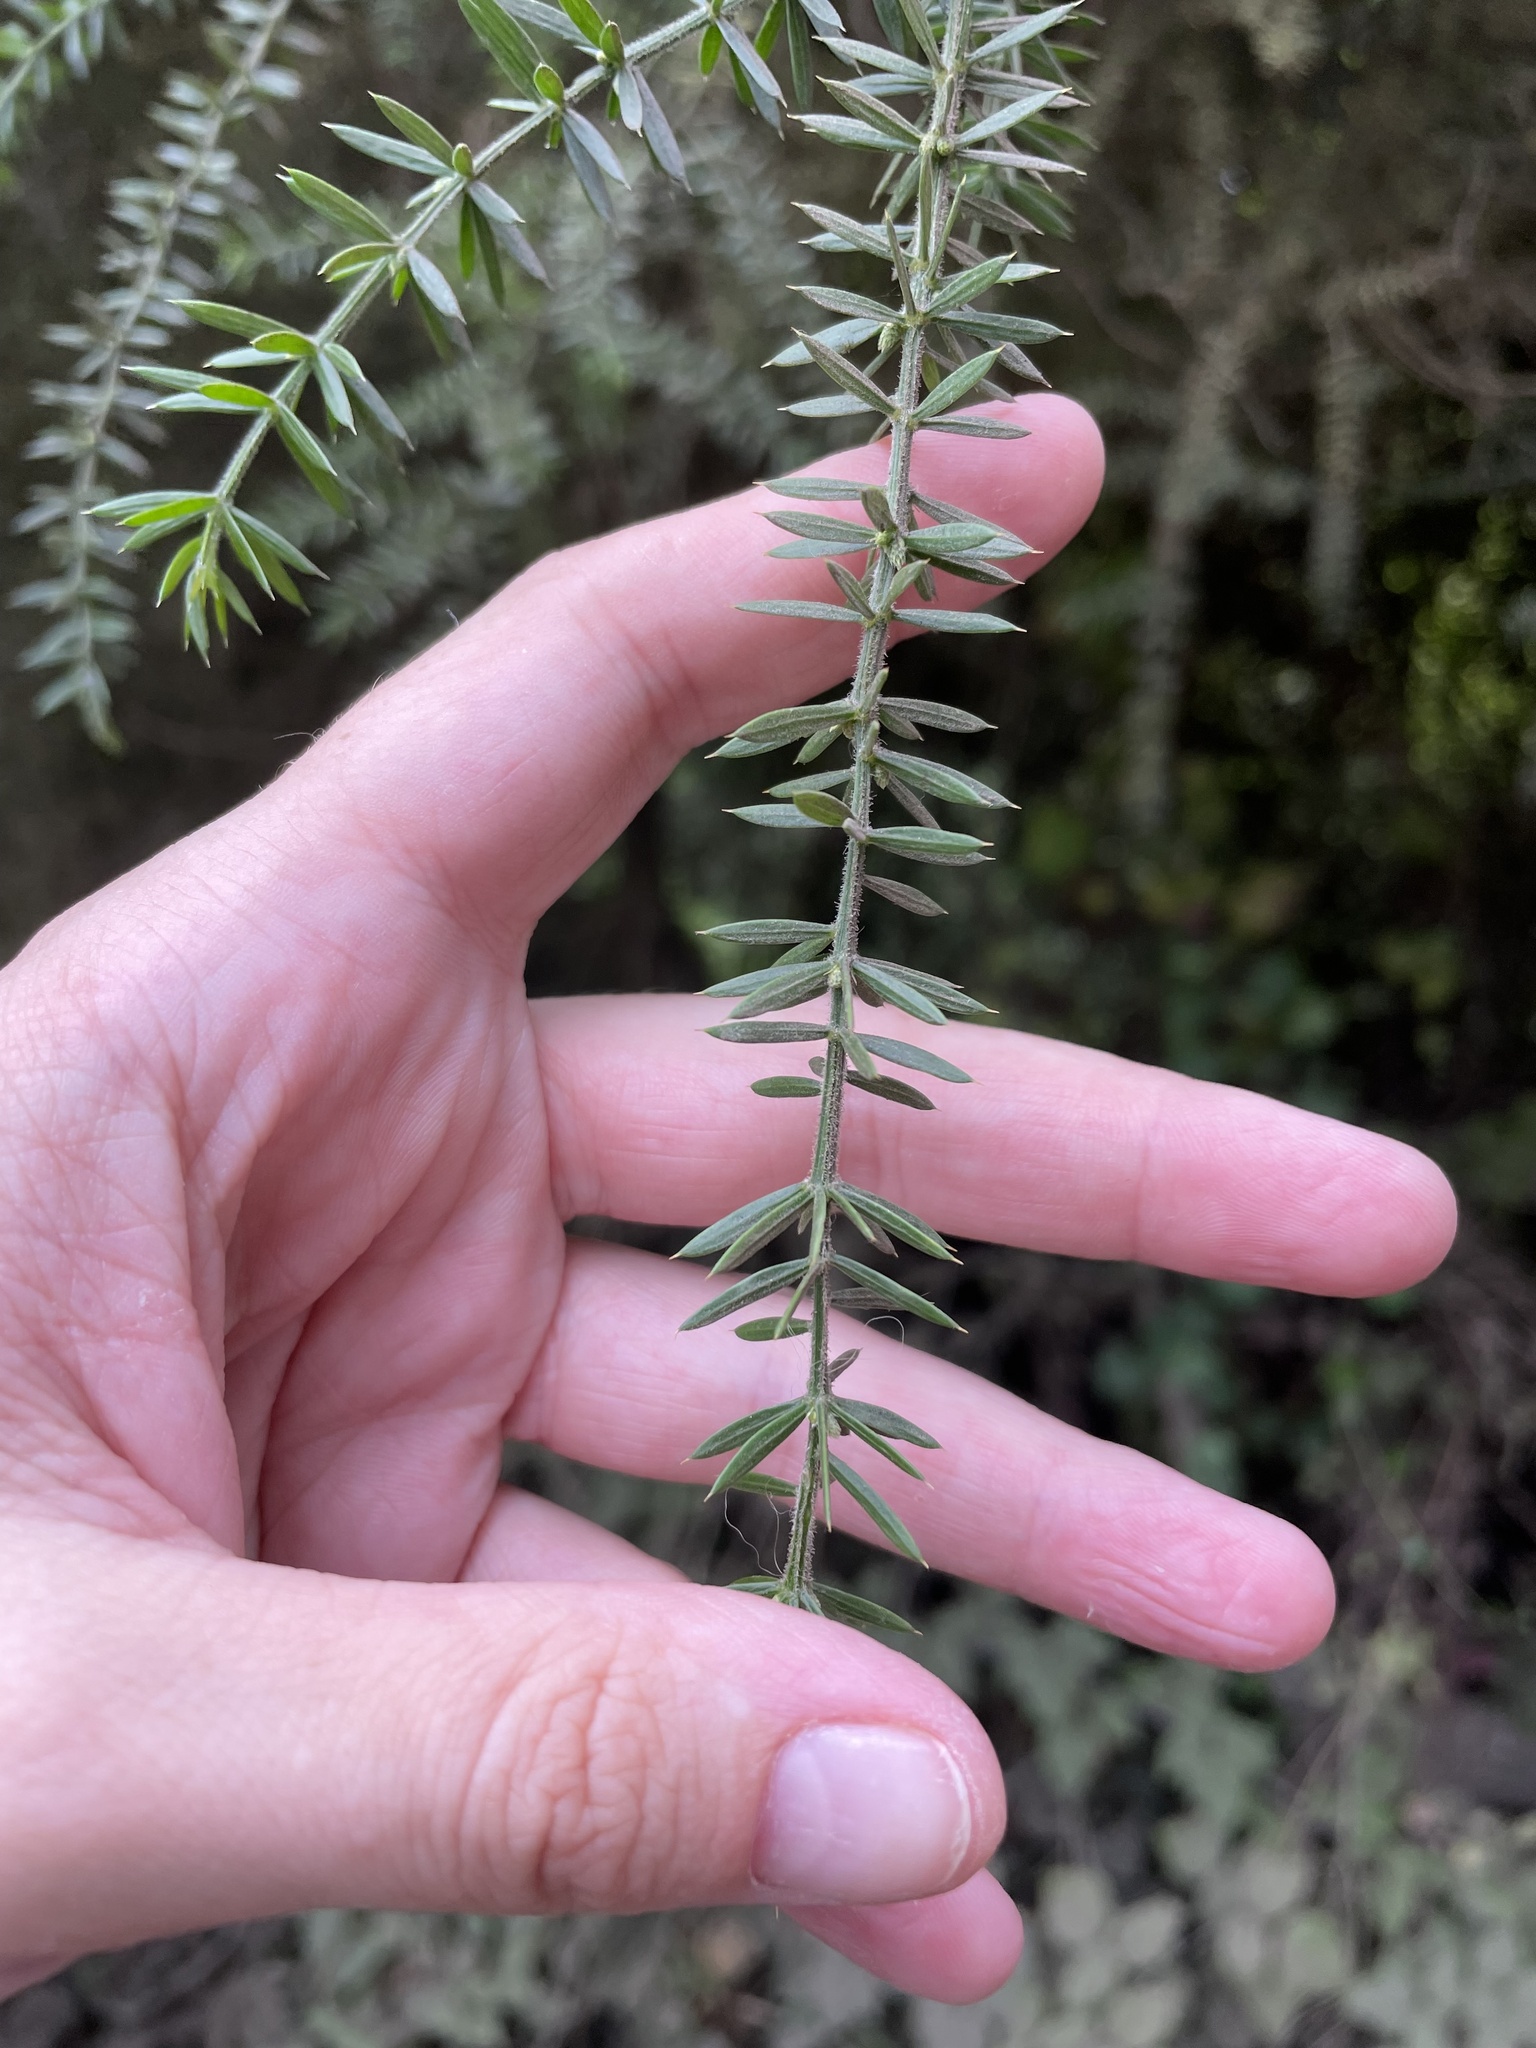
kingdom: Plantae
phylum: Tracheophyta
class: Magnoliopsida
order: Fabales
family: Fabaceae
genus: Acacia
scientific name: Acacia verticillata
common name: Prickly moses
